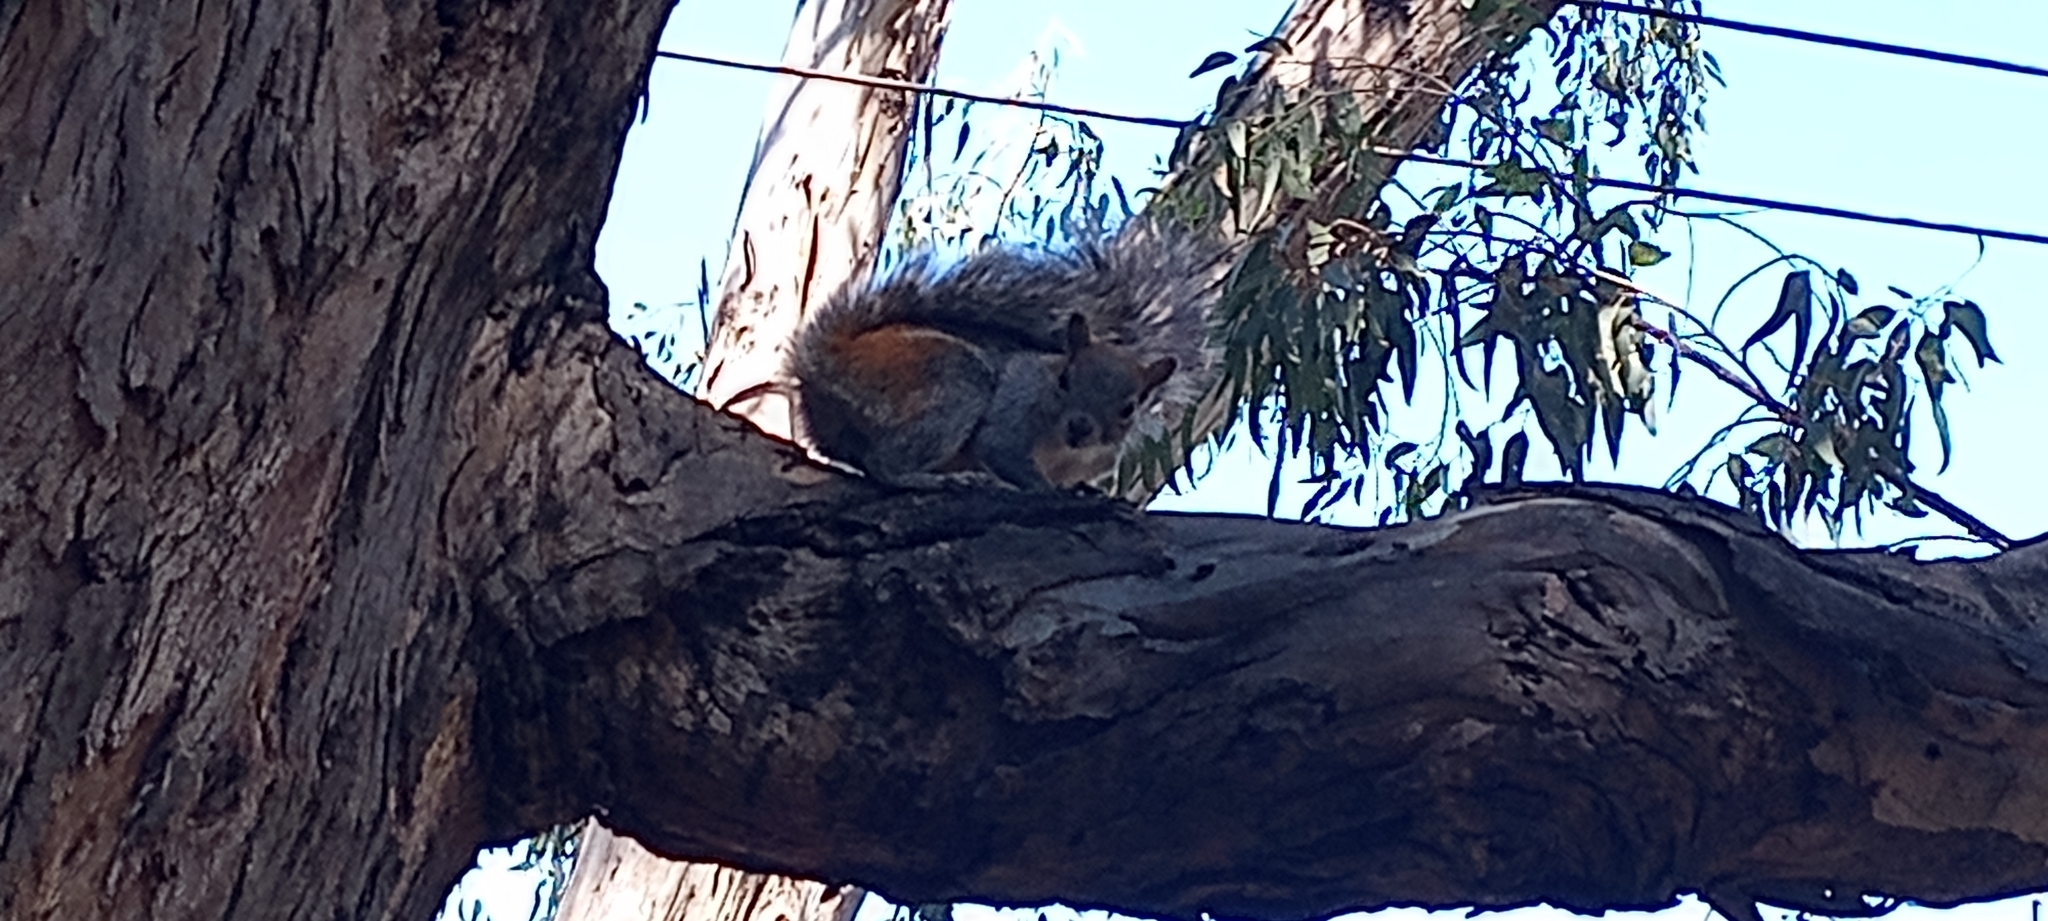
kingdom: Animalia
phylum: Chordata
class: Mammalia
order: Rodentia
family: Sciuridae
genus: Sciurus
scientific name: Sciurus aureogaster
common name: Red-bellied squirrel
